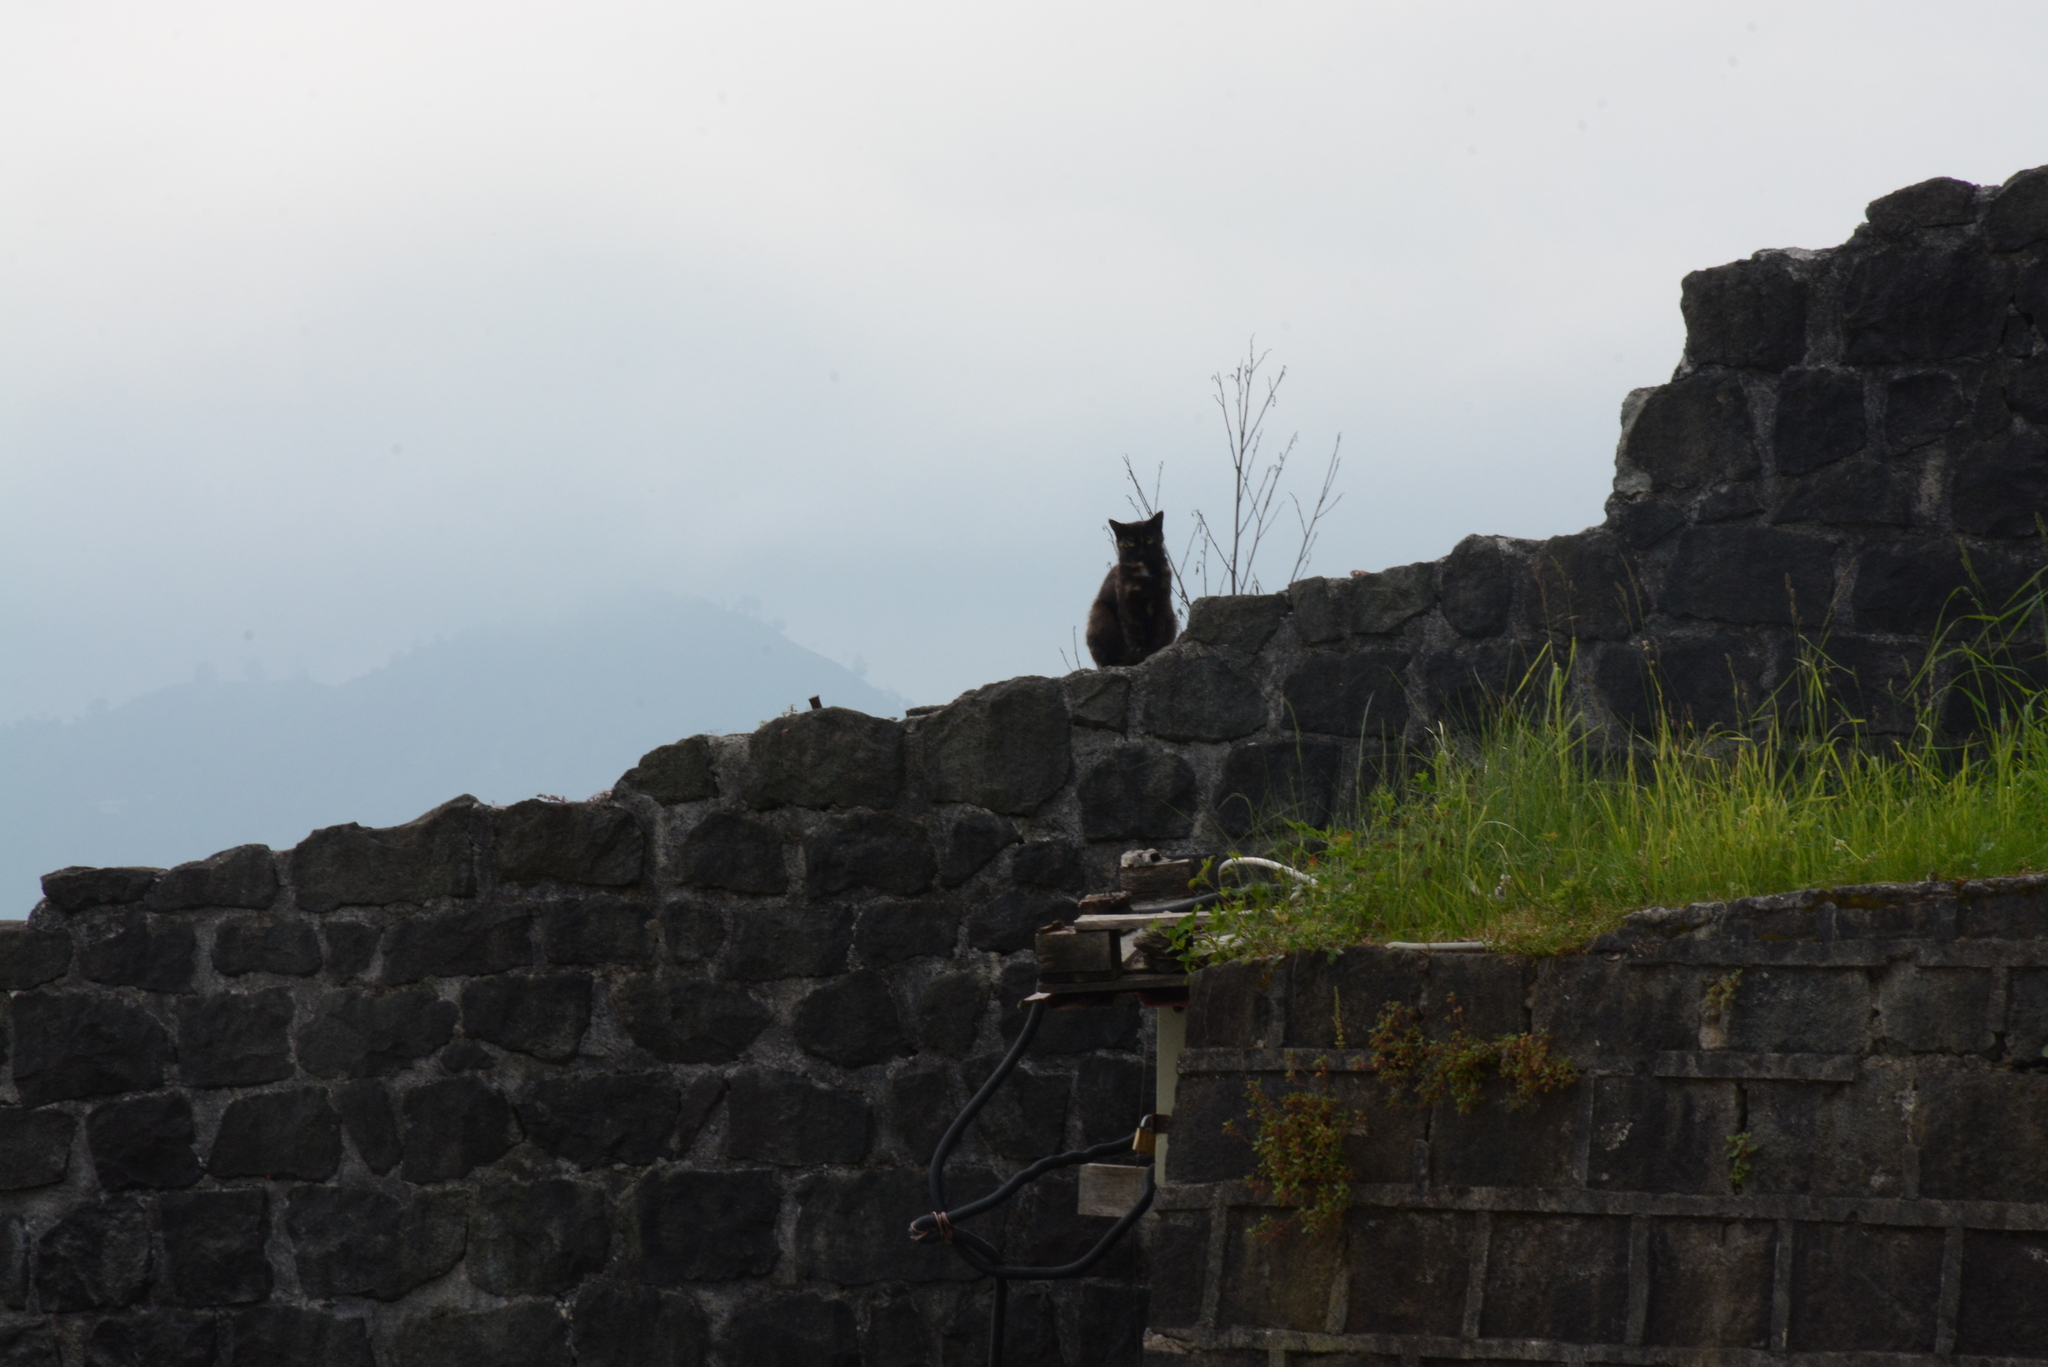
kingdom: Animalia
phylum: Chordata
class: Mammalia
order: Carnivora
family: Felidae
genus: Felis
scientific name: Felis catus
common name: Domestic cat
